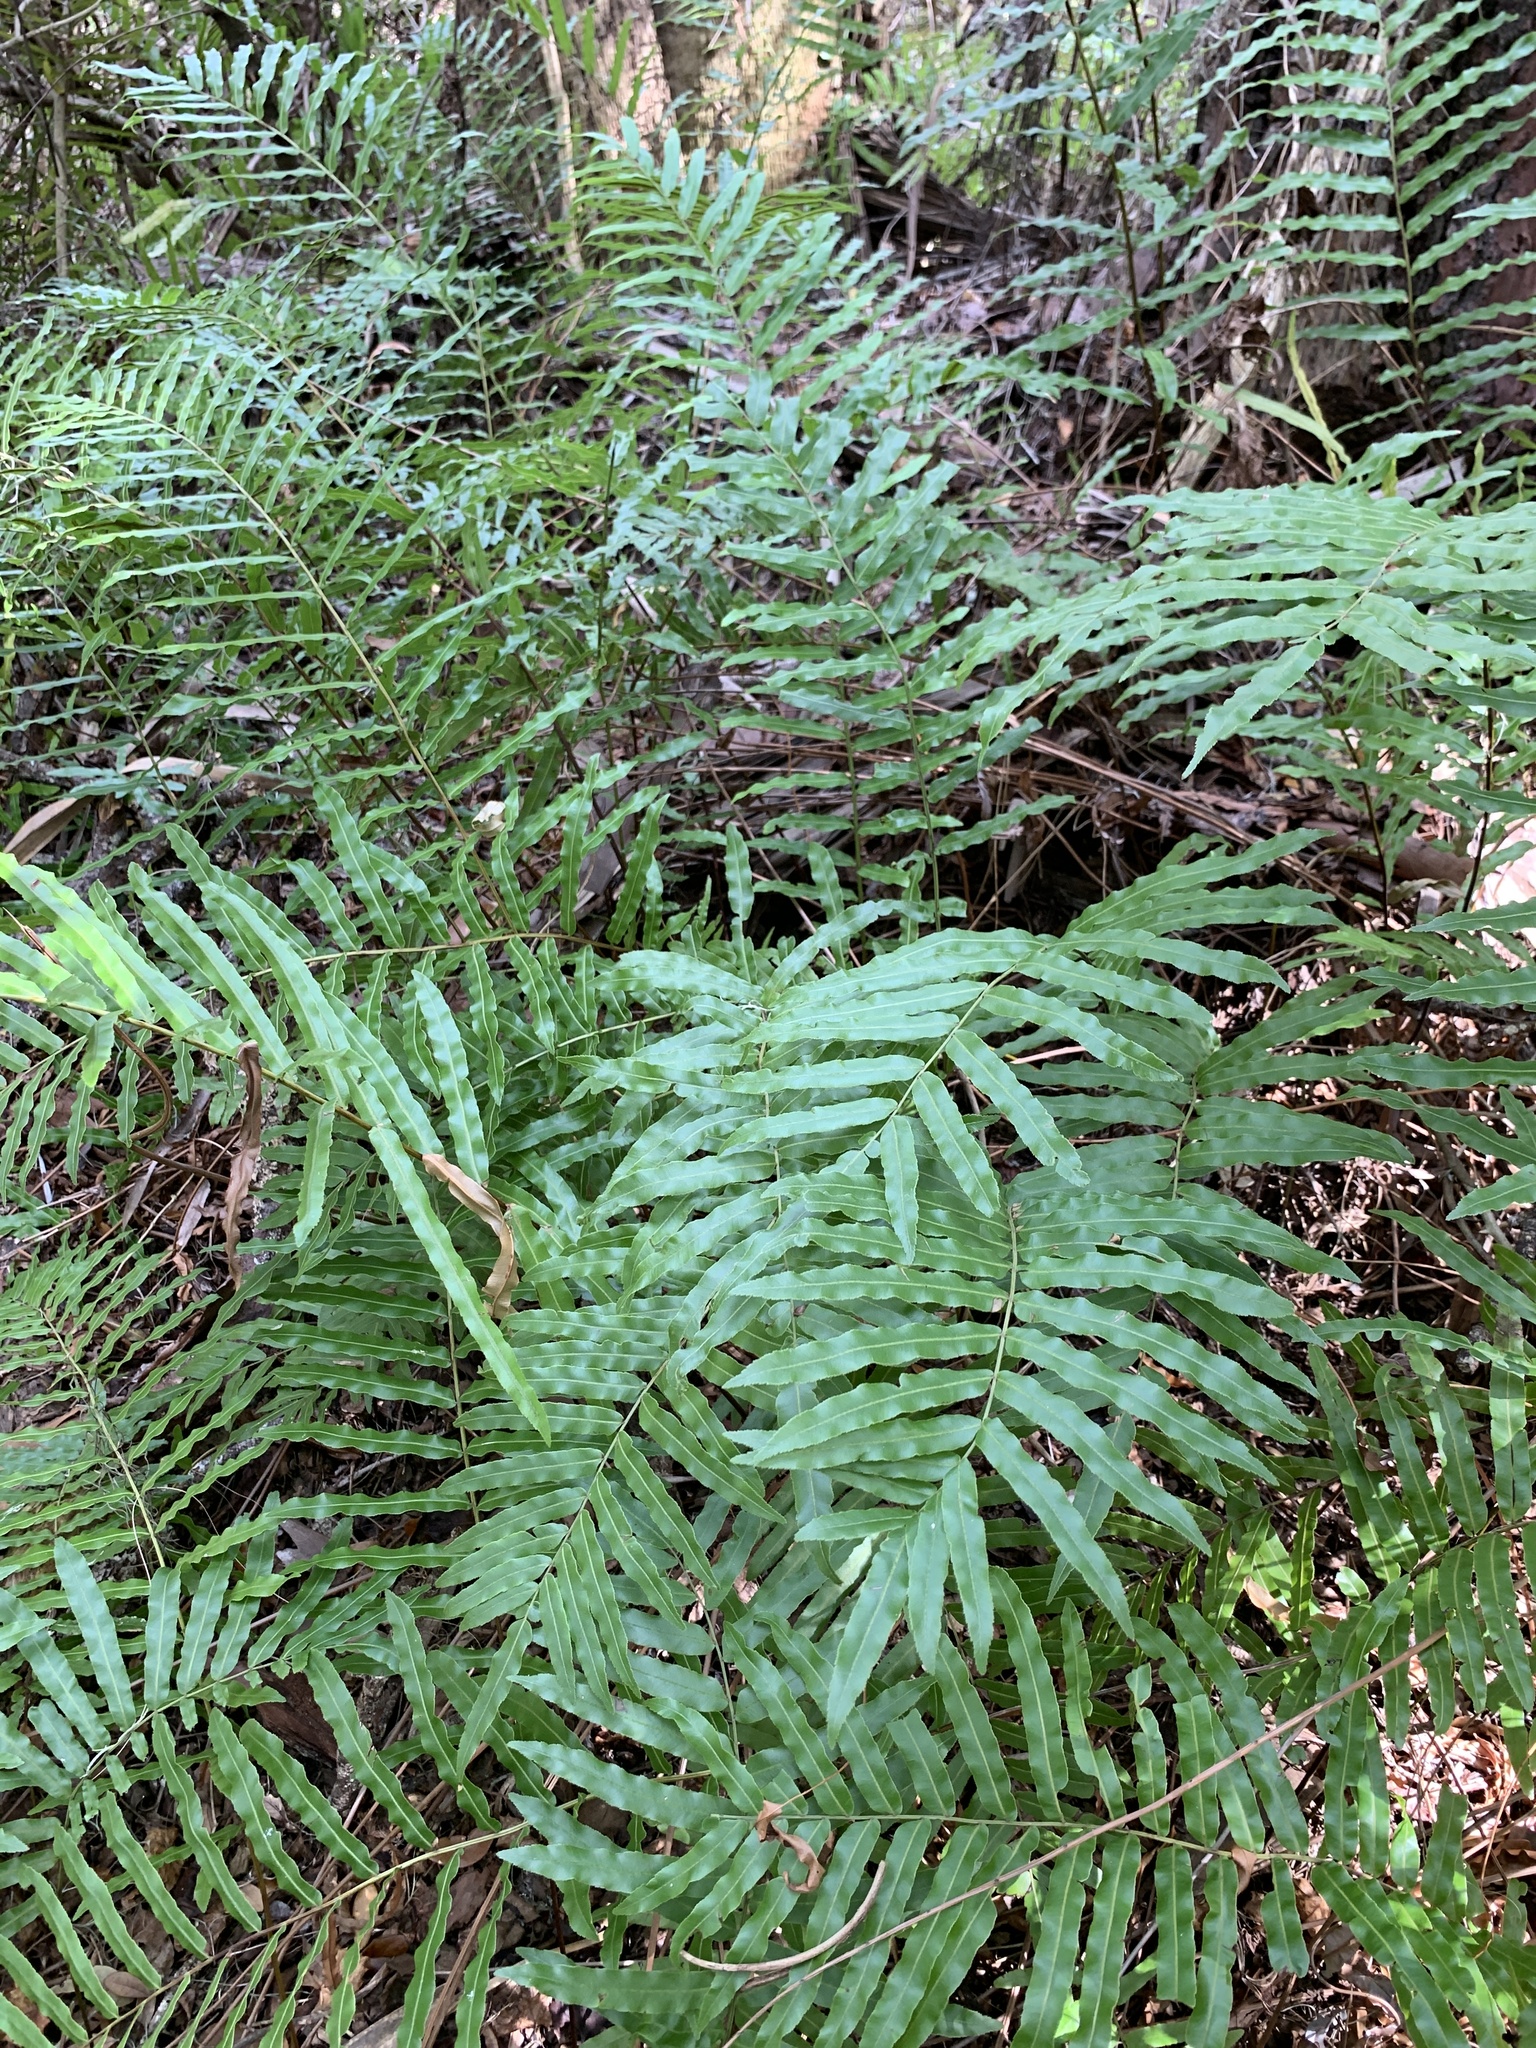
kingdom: Plantae
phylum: Tracheophyta
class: Polypodiopsida
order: Polypodiales
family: Blechnaceae
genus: Telmatoblechnum
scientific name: Telmatoblechnum serrulatum
